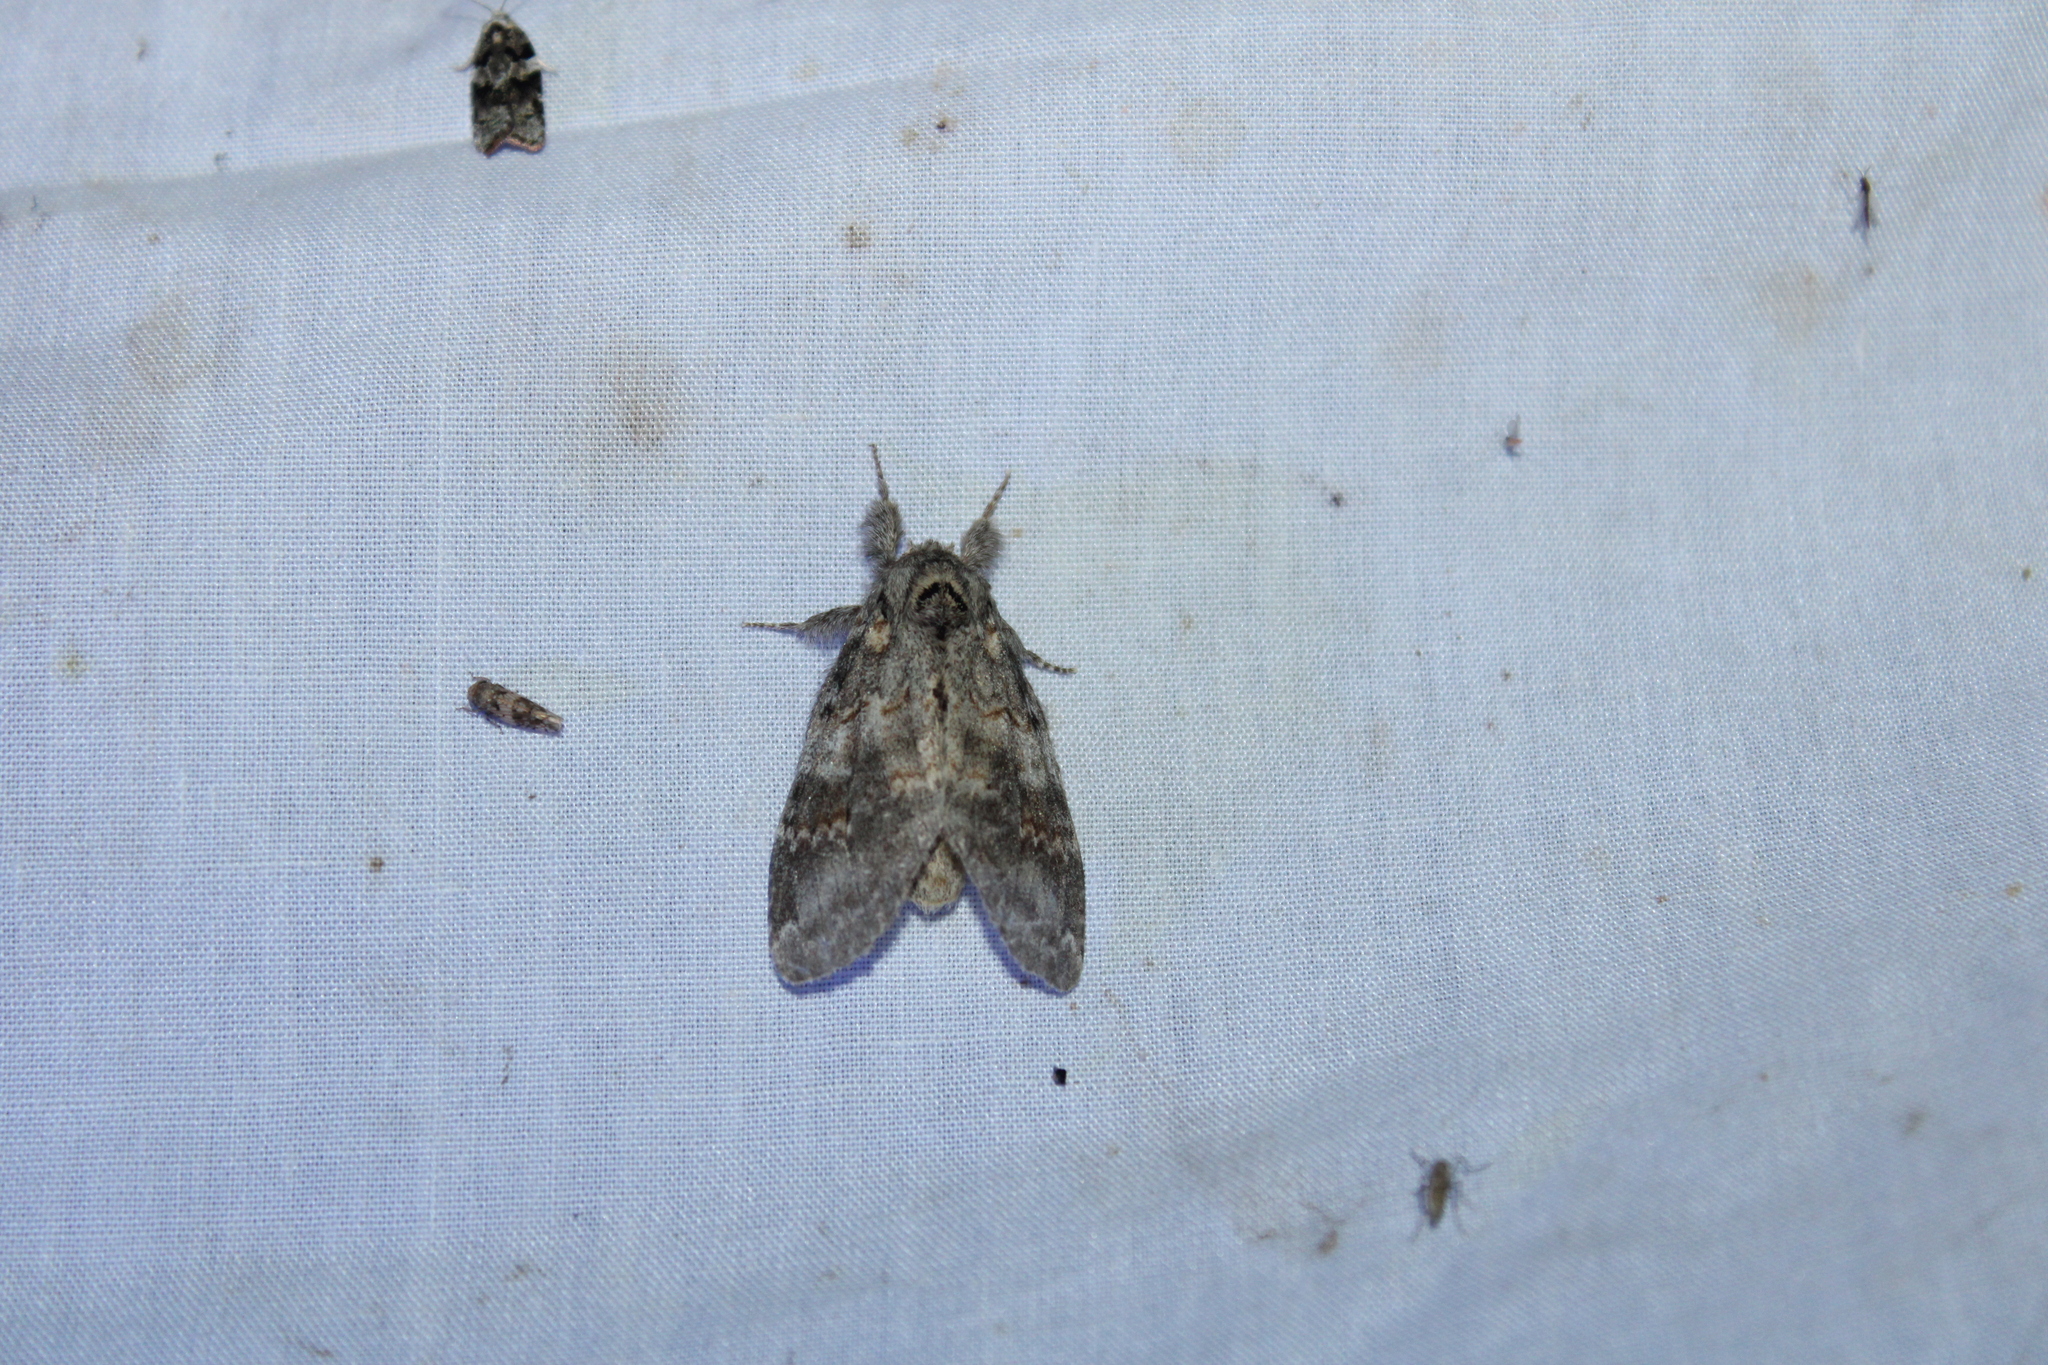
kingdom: Animalia
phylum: Arthropoda
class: Insecta
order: Lepidoptera
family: Notodontidae
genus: Peridea
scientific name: Peridea angulosa
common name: Angulose prominent
